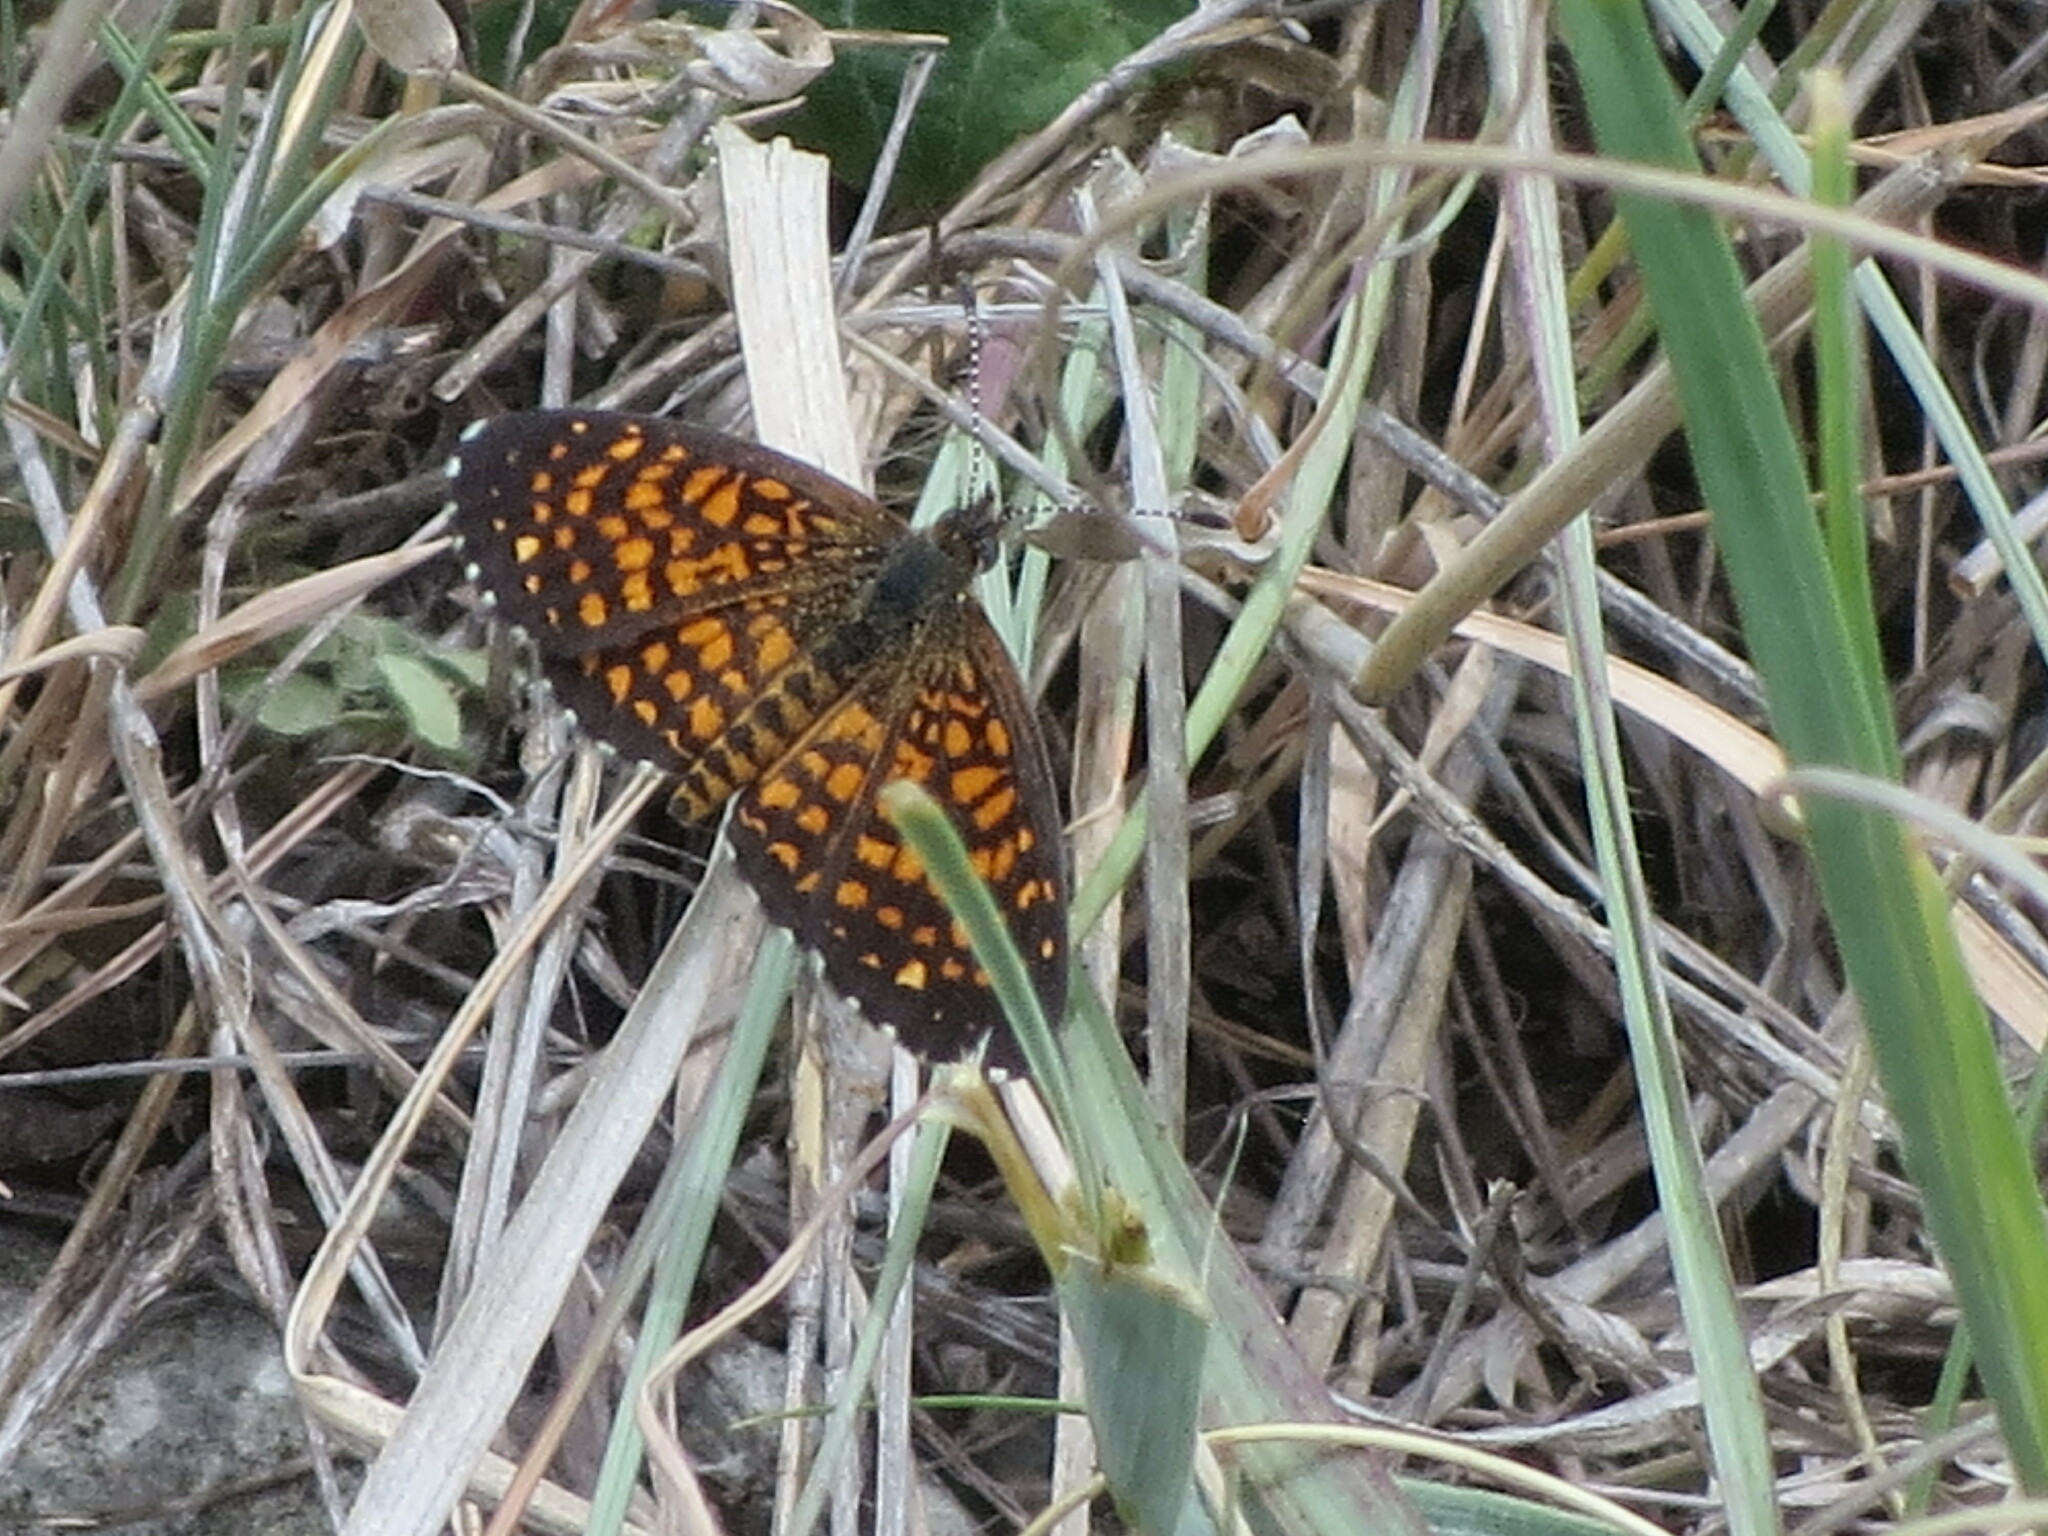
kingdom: Animalia
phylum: Arthropoda
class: Insecta
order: Lepidoptera
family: Nymphalidae
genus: Texola
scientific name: Texola elada
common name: Elada checkerspot
